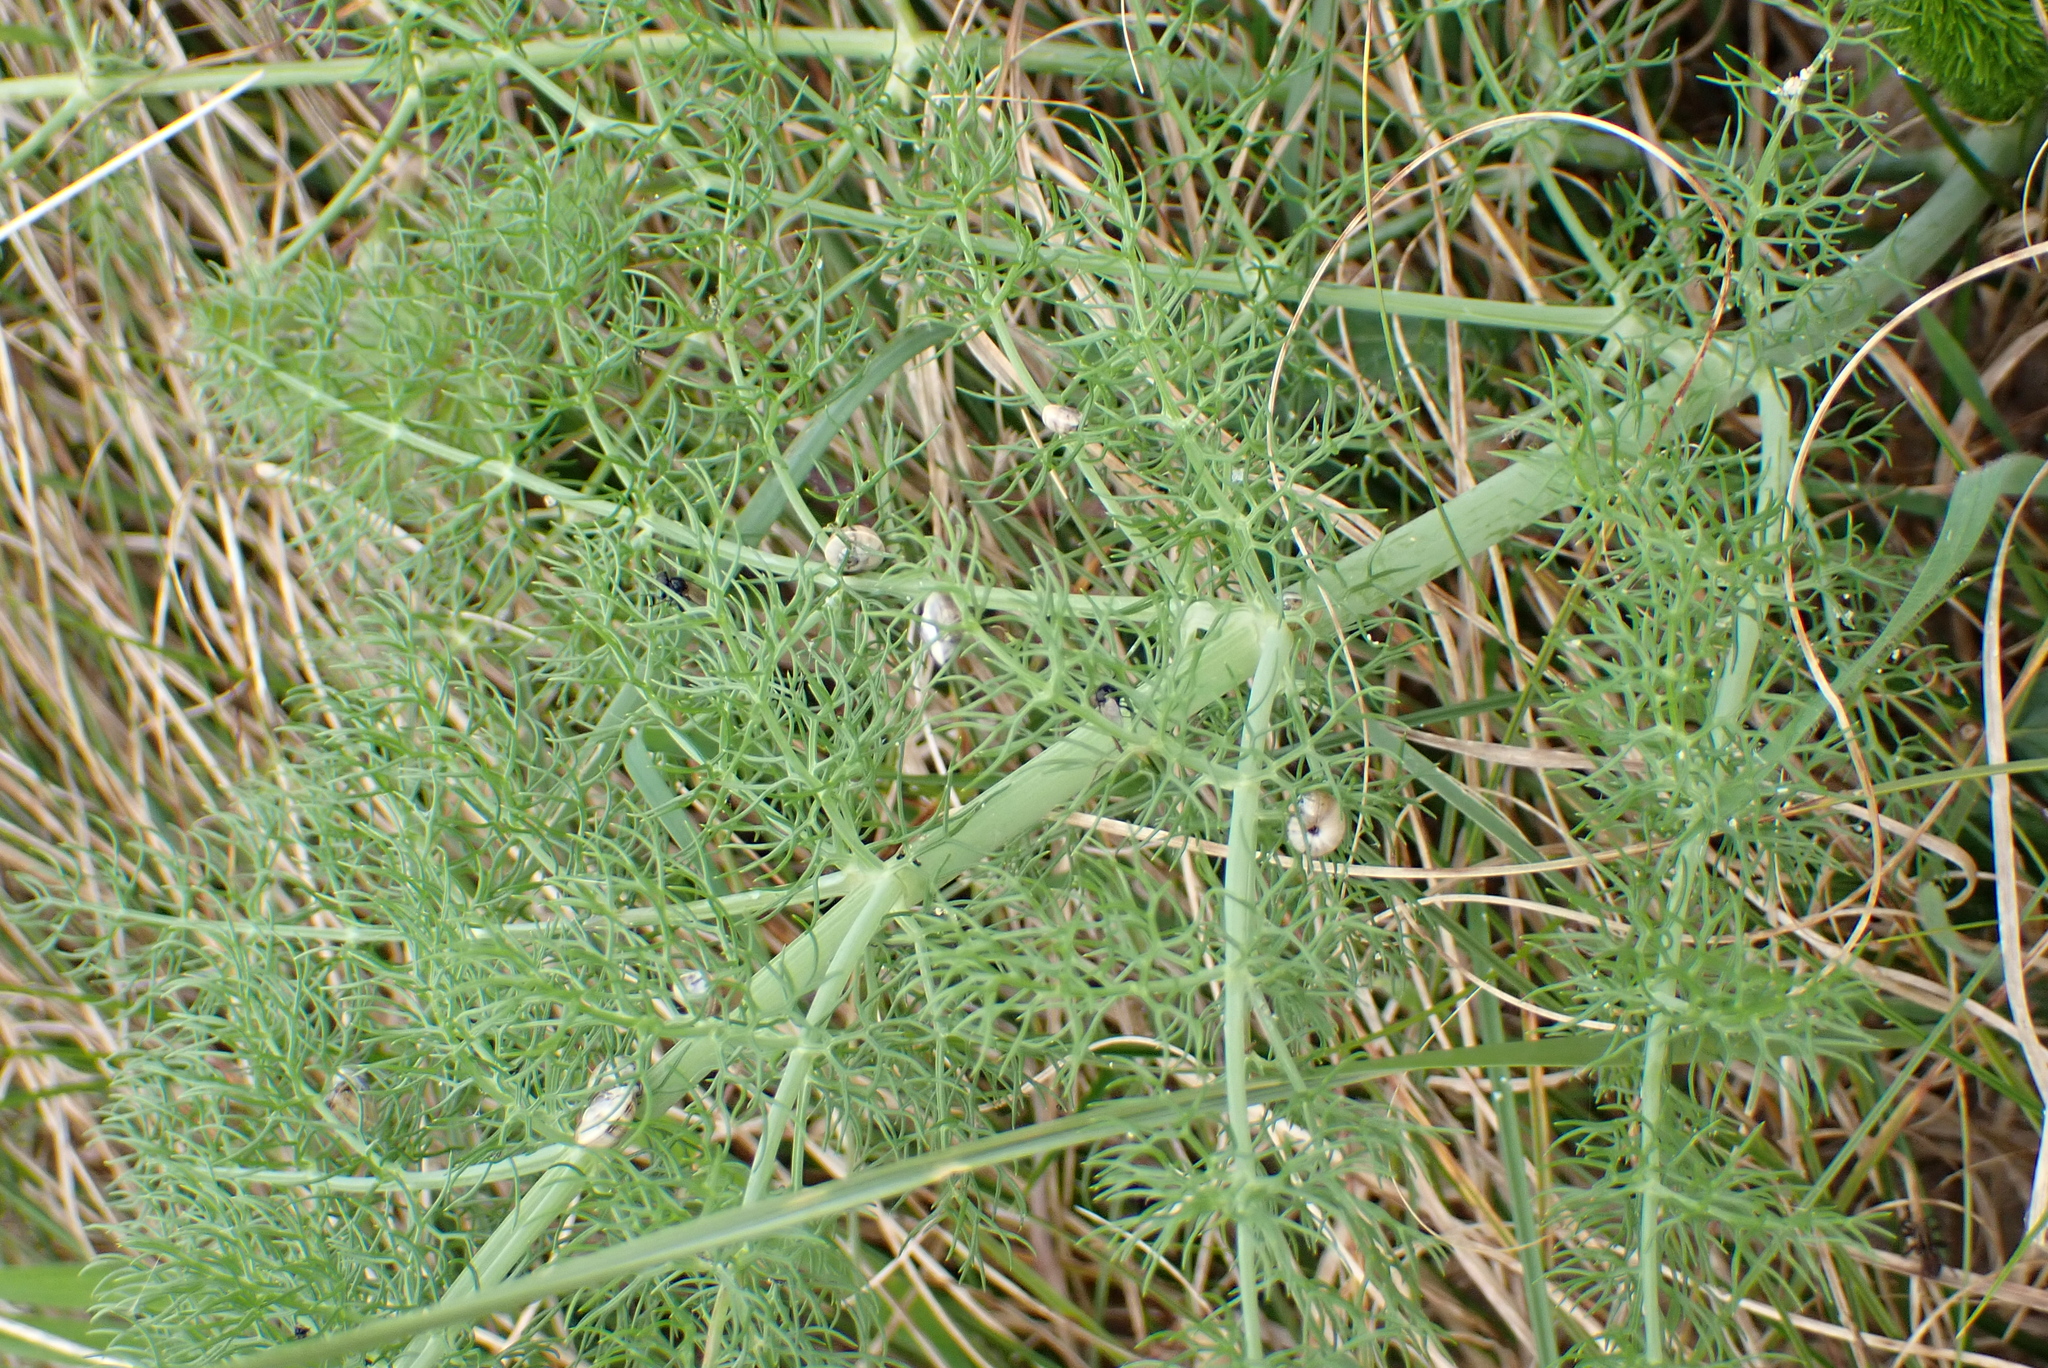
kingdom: Plantae
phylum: Tracheophyta
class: Magnoliopsida
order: Apiales
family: Apiaceae
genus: Foeniculum
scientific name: Foeniculum vulgare
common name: Fennel
